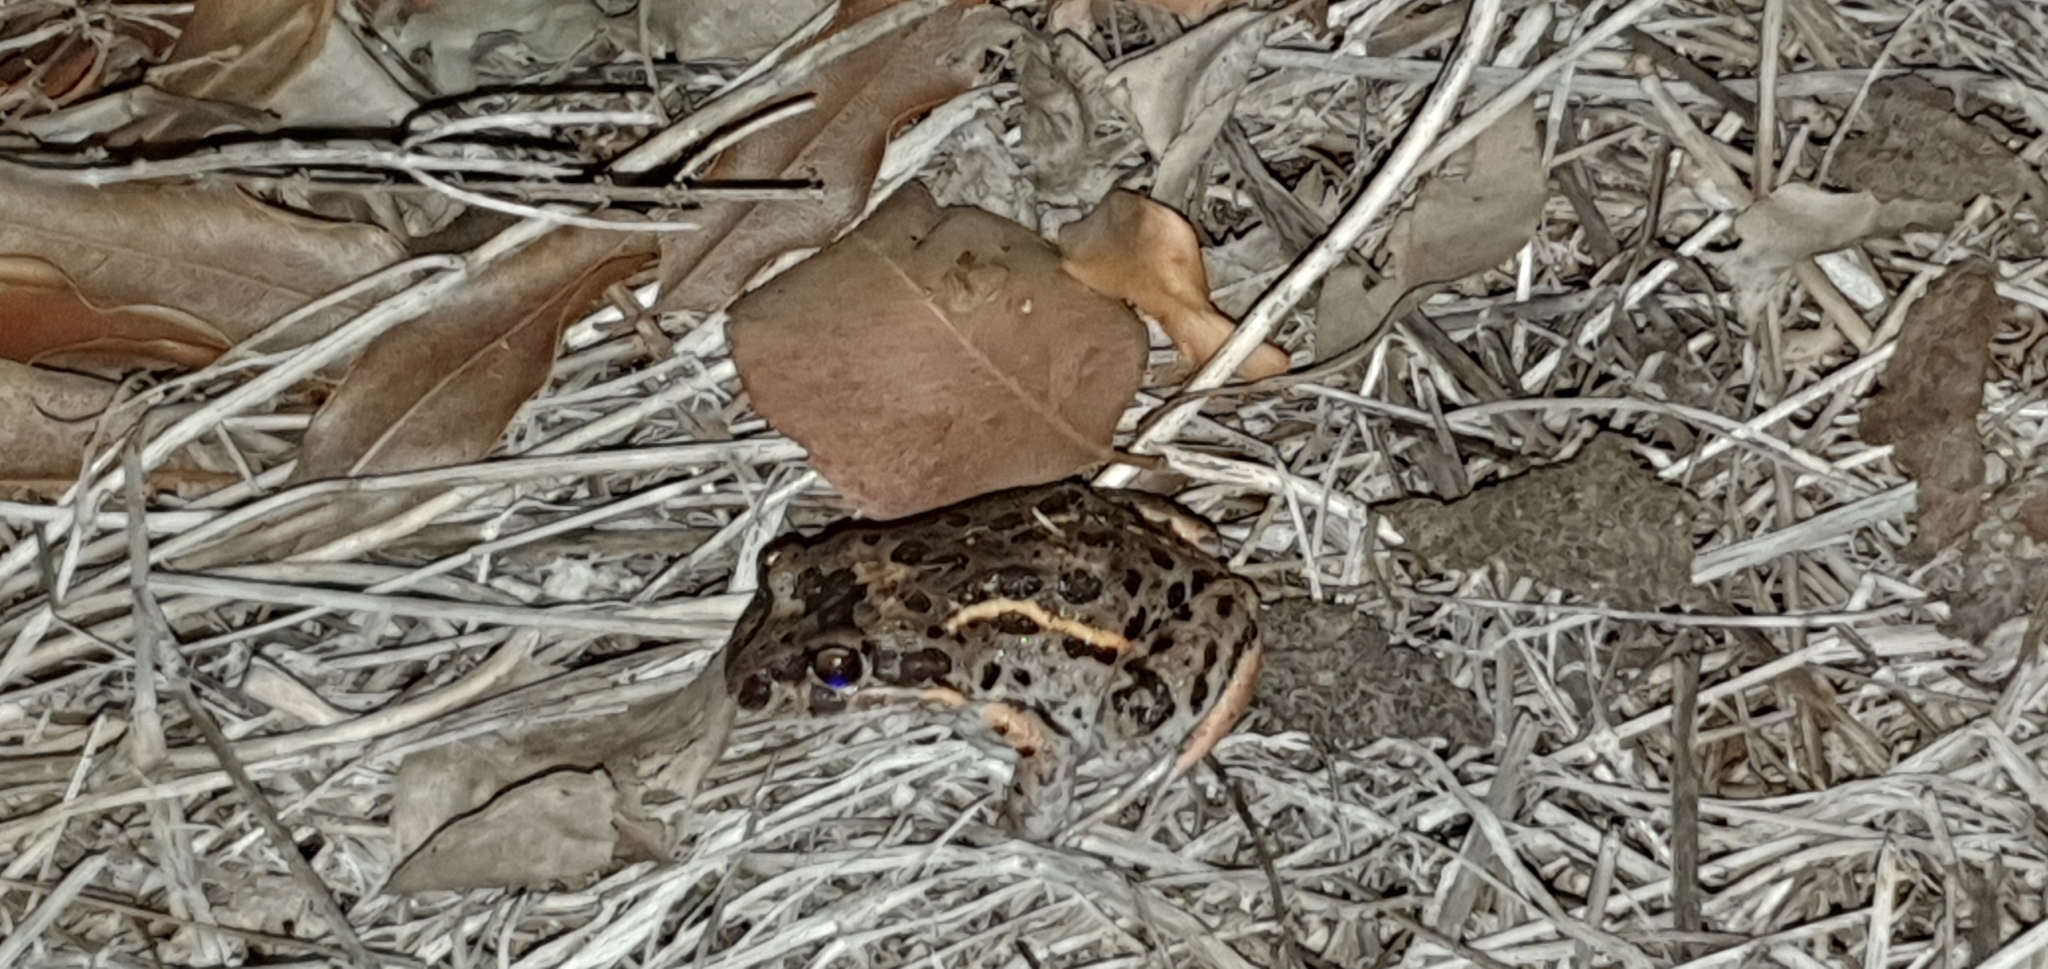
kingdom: Animalia
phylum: Chordata
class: Amphibia
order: Anura
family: Limnodynastidae
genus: Limnodynastes
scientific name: Limnodynastes salmini
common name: Salmon-striped frog
